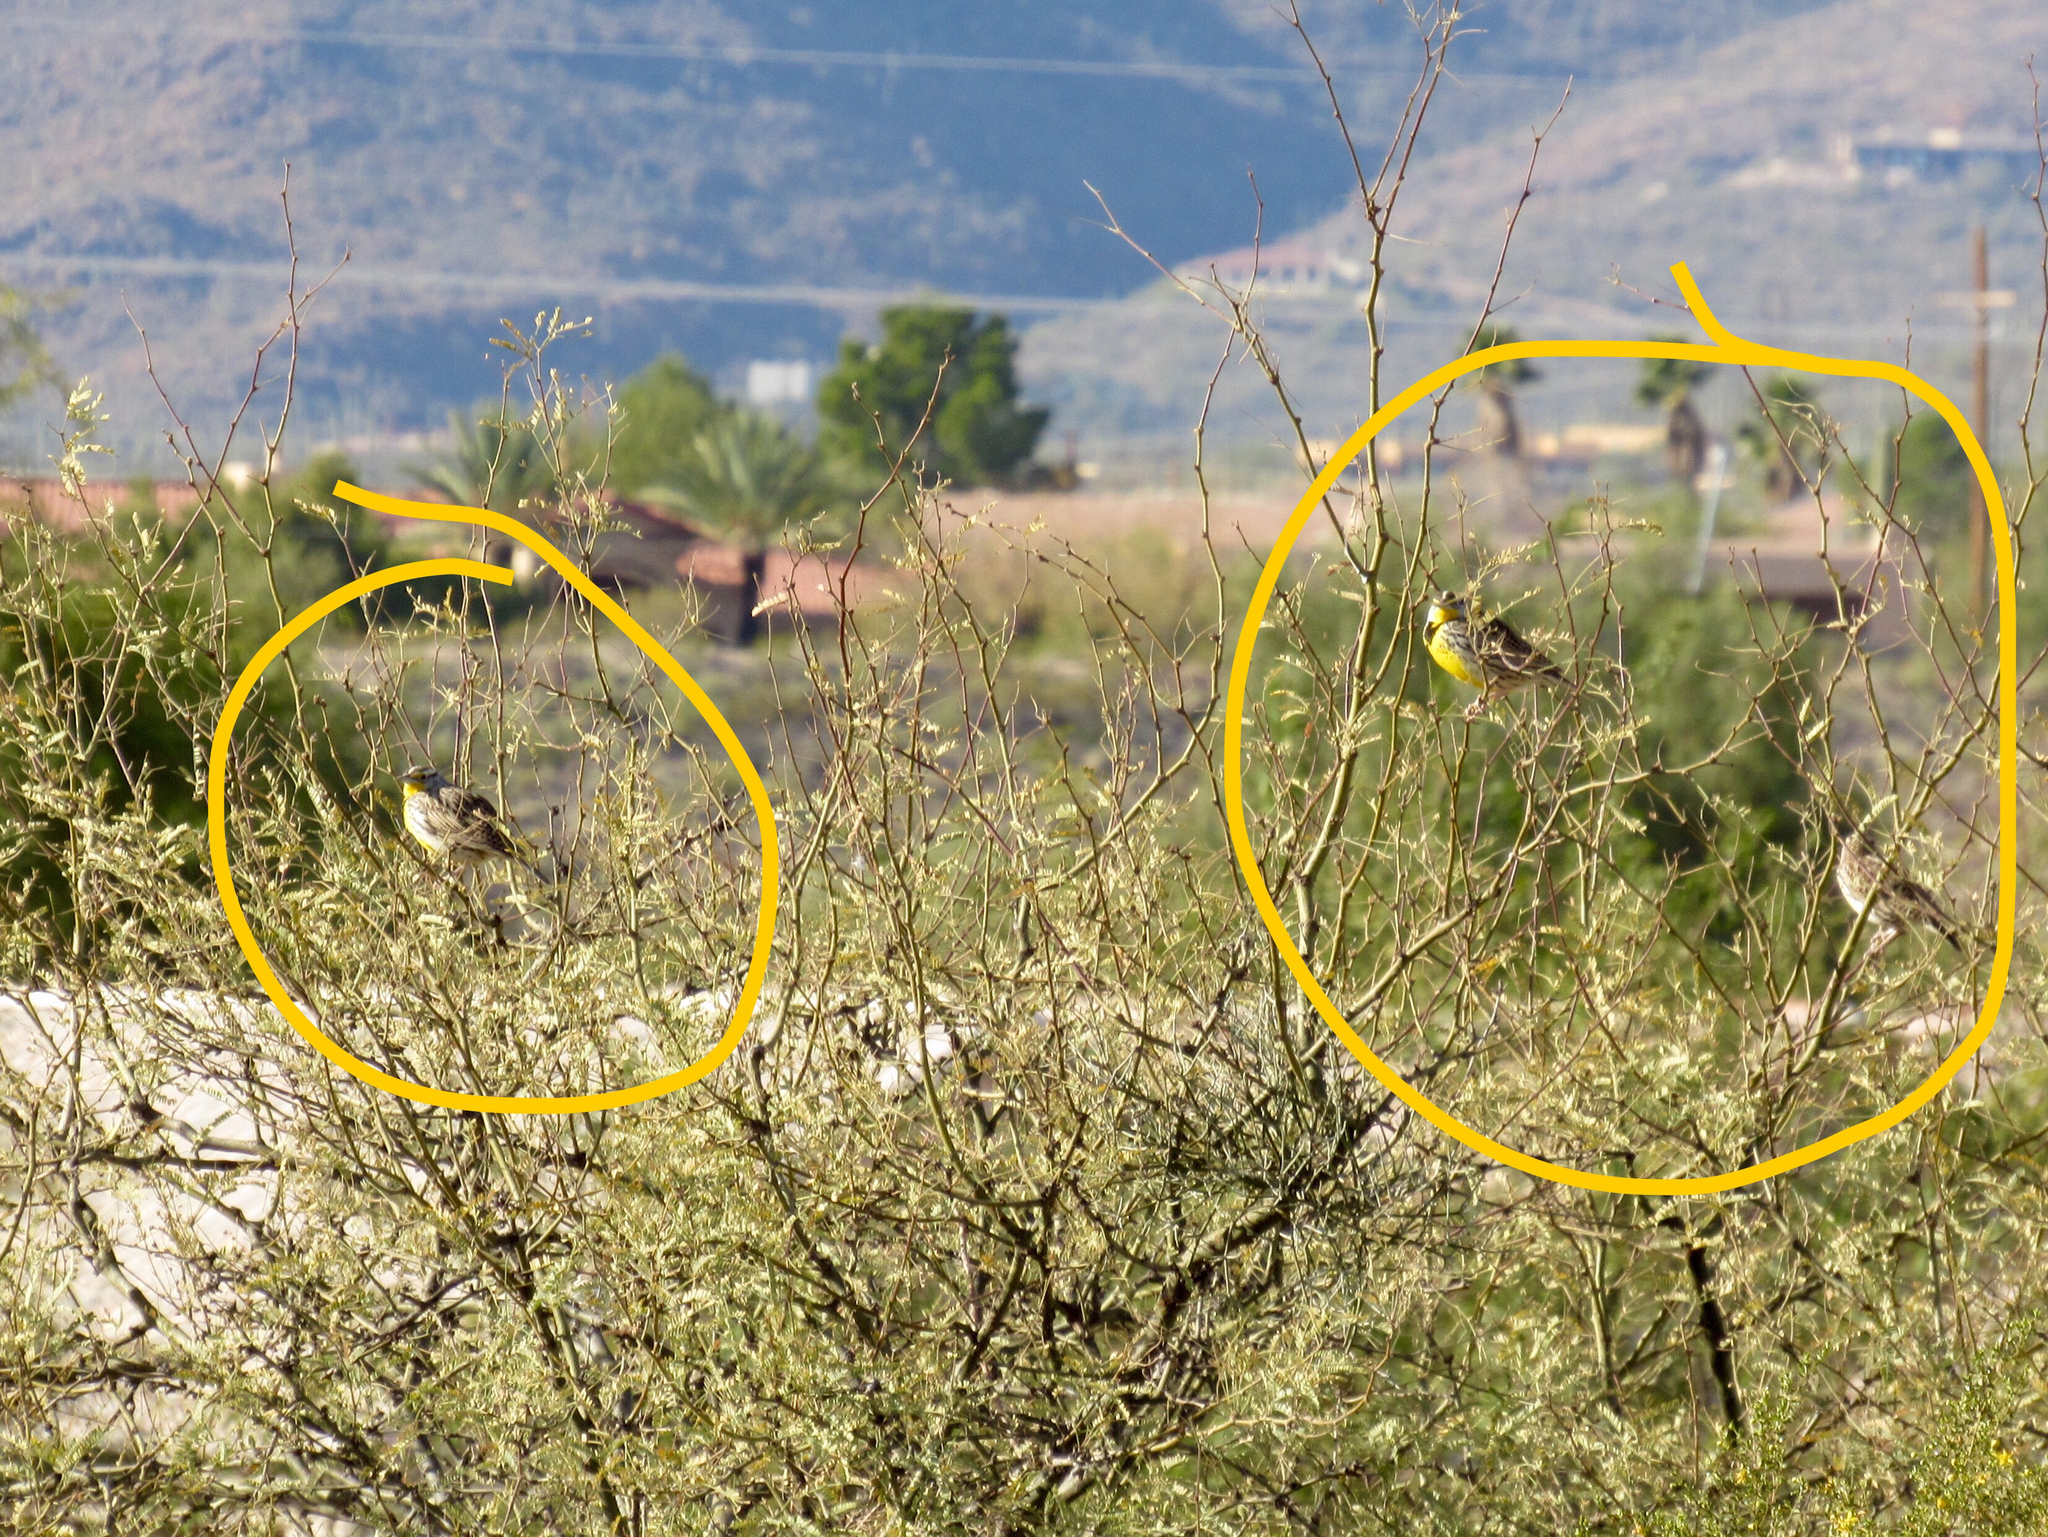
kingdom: Animalia
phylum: Chordata
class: Aves
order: Passeriformes
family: Icteridae
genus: Sturnella
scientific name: Sturnella lilianae
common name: Lilian's meadowlark
